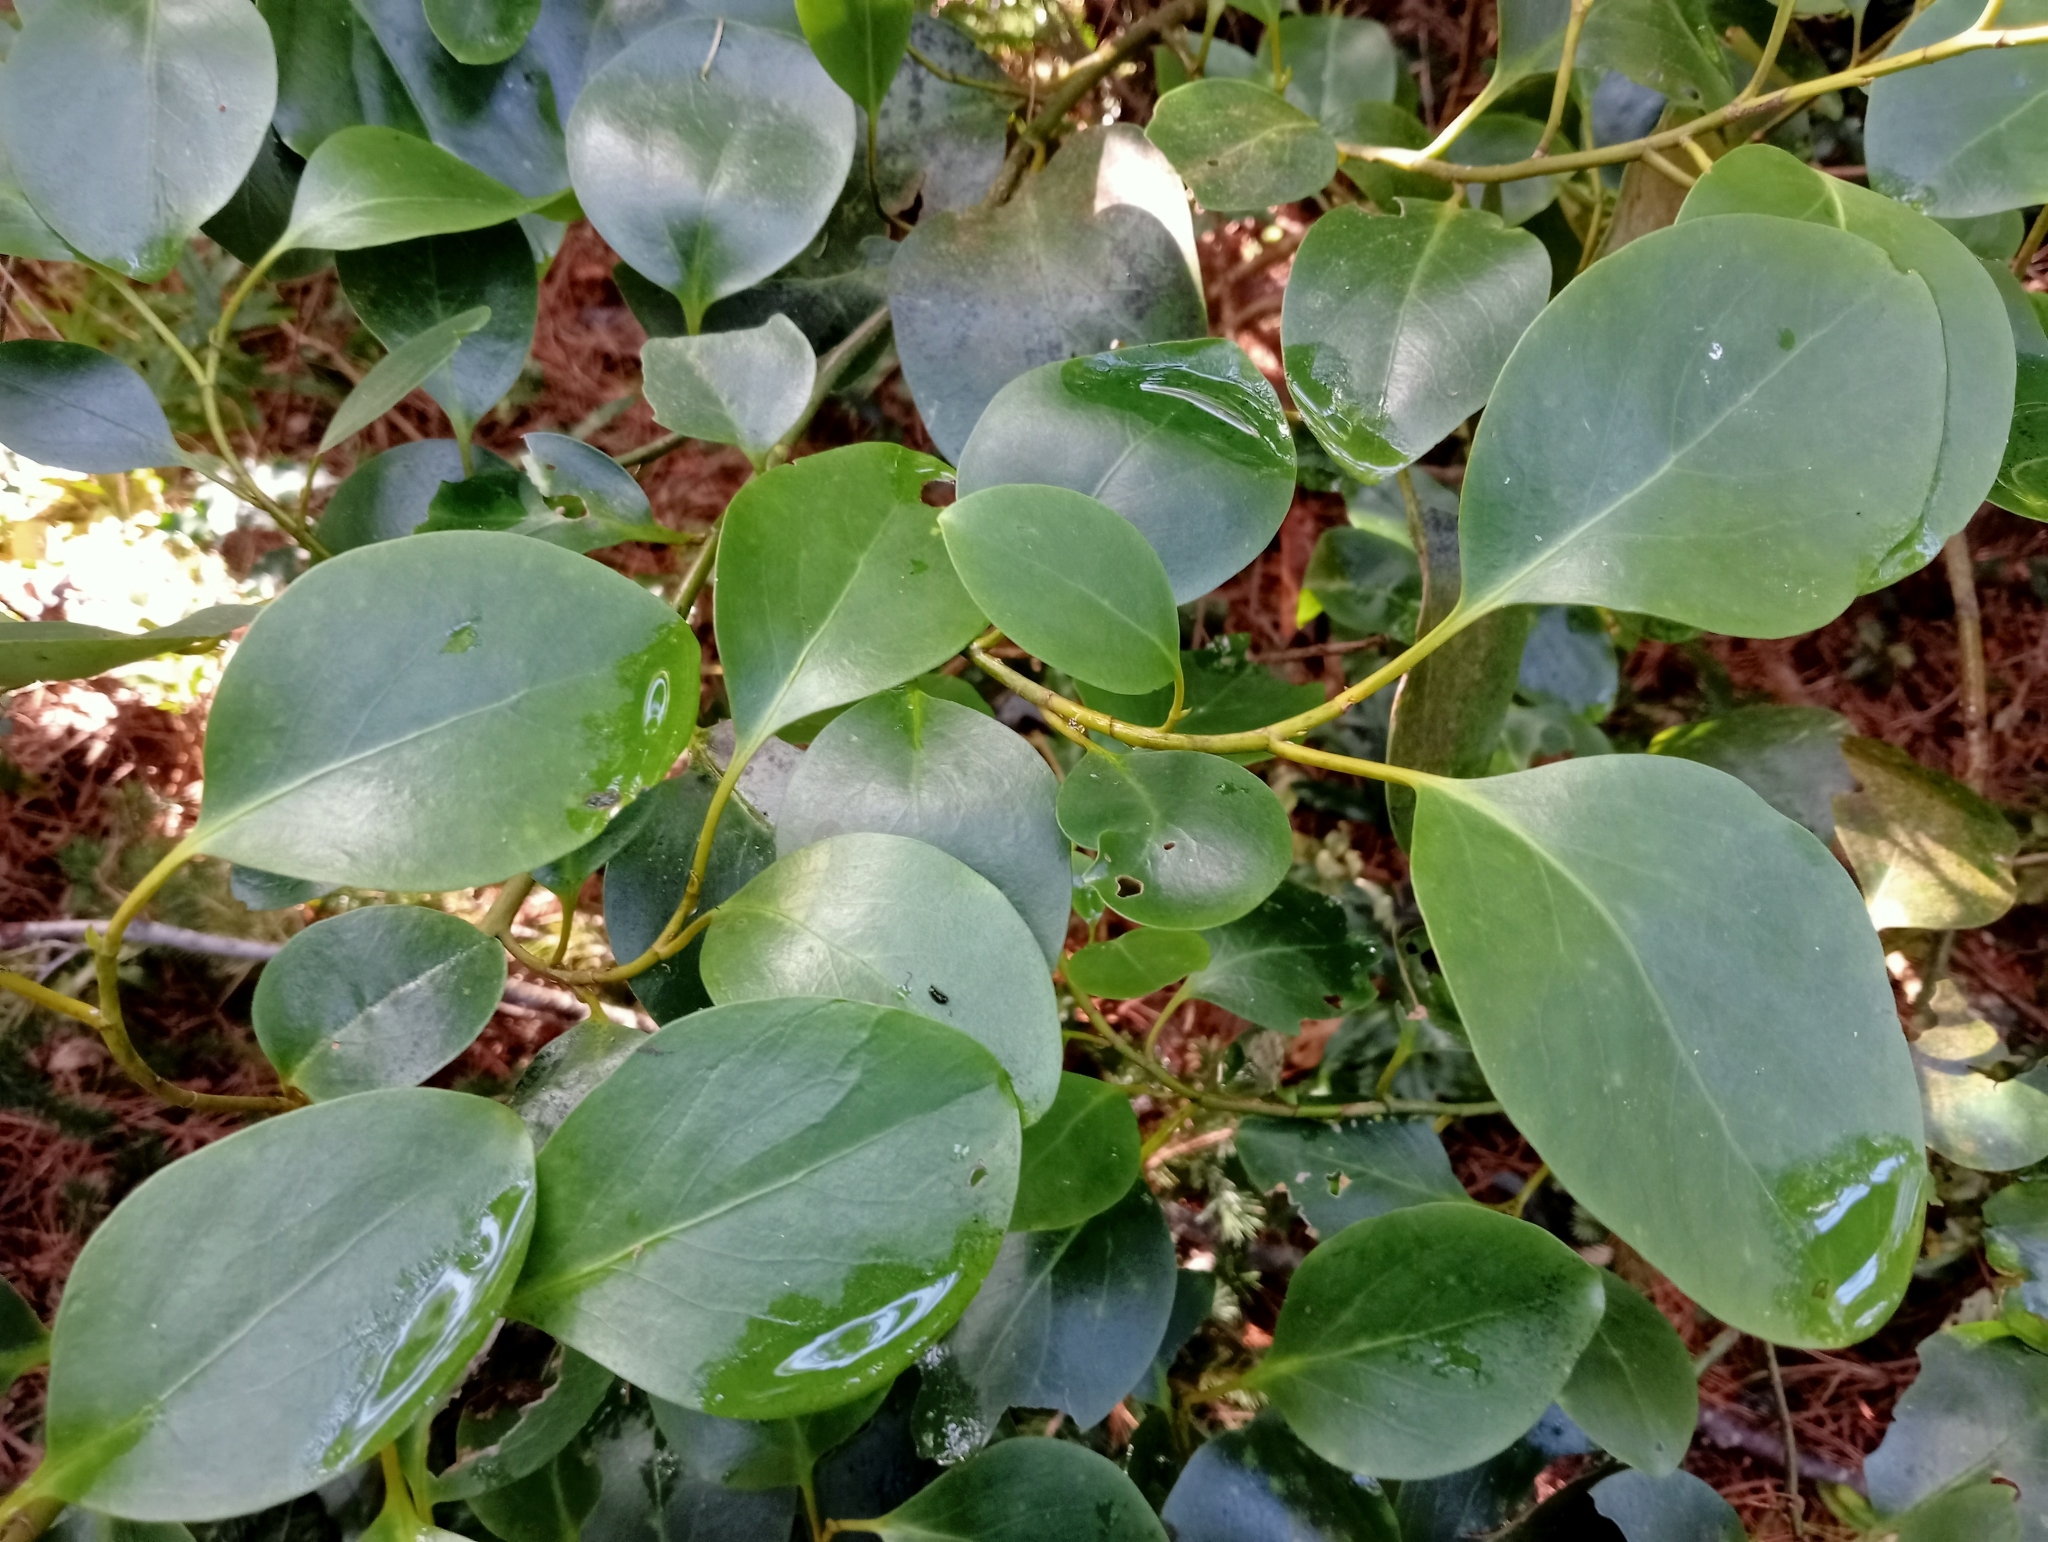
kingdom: Plantae
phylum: Tracheophyta
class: Magnoliopsida
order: Apiales
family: Griseliniaceae
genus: Griselinia
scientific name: Griselinia littoralis
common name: New zealand broadleaf
